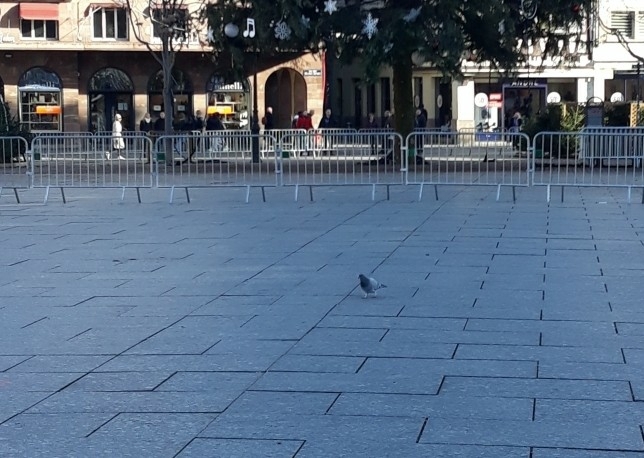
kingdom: Animalia
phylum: Chordata
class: Aves
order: Columbiformes
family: Columbidae
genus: Columba
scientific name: Columba livia
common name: Rock pigeon
